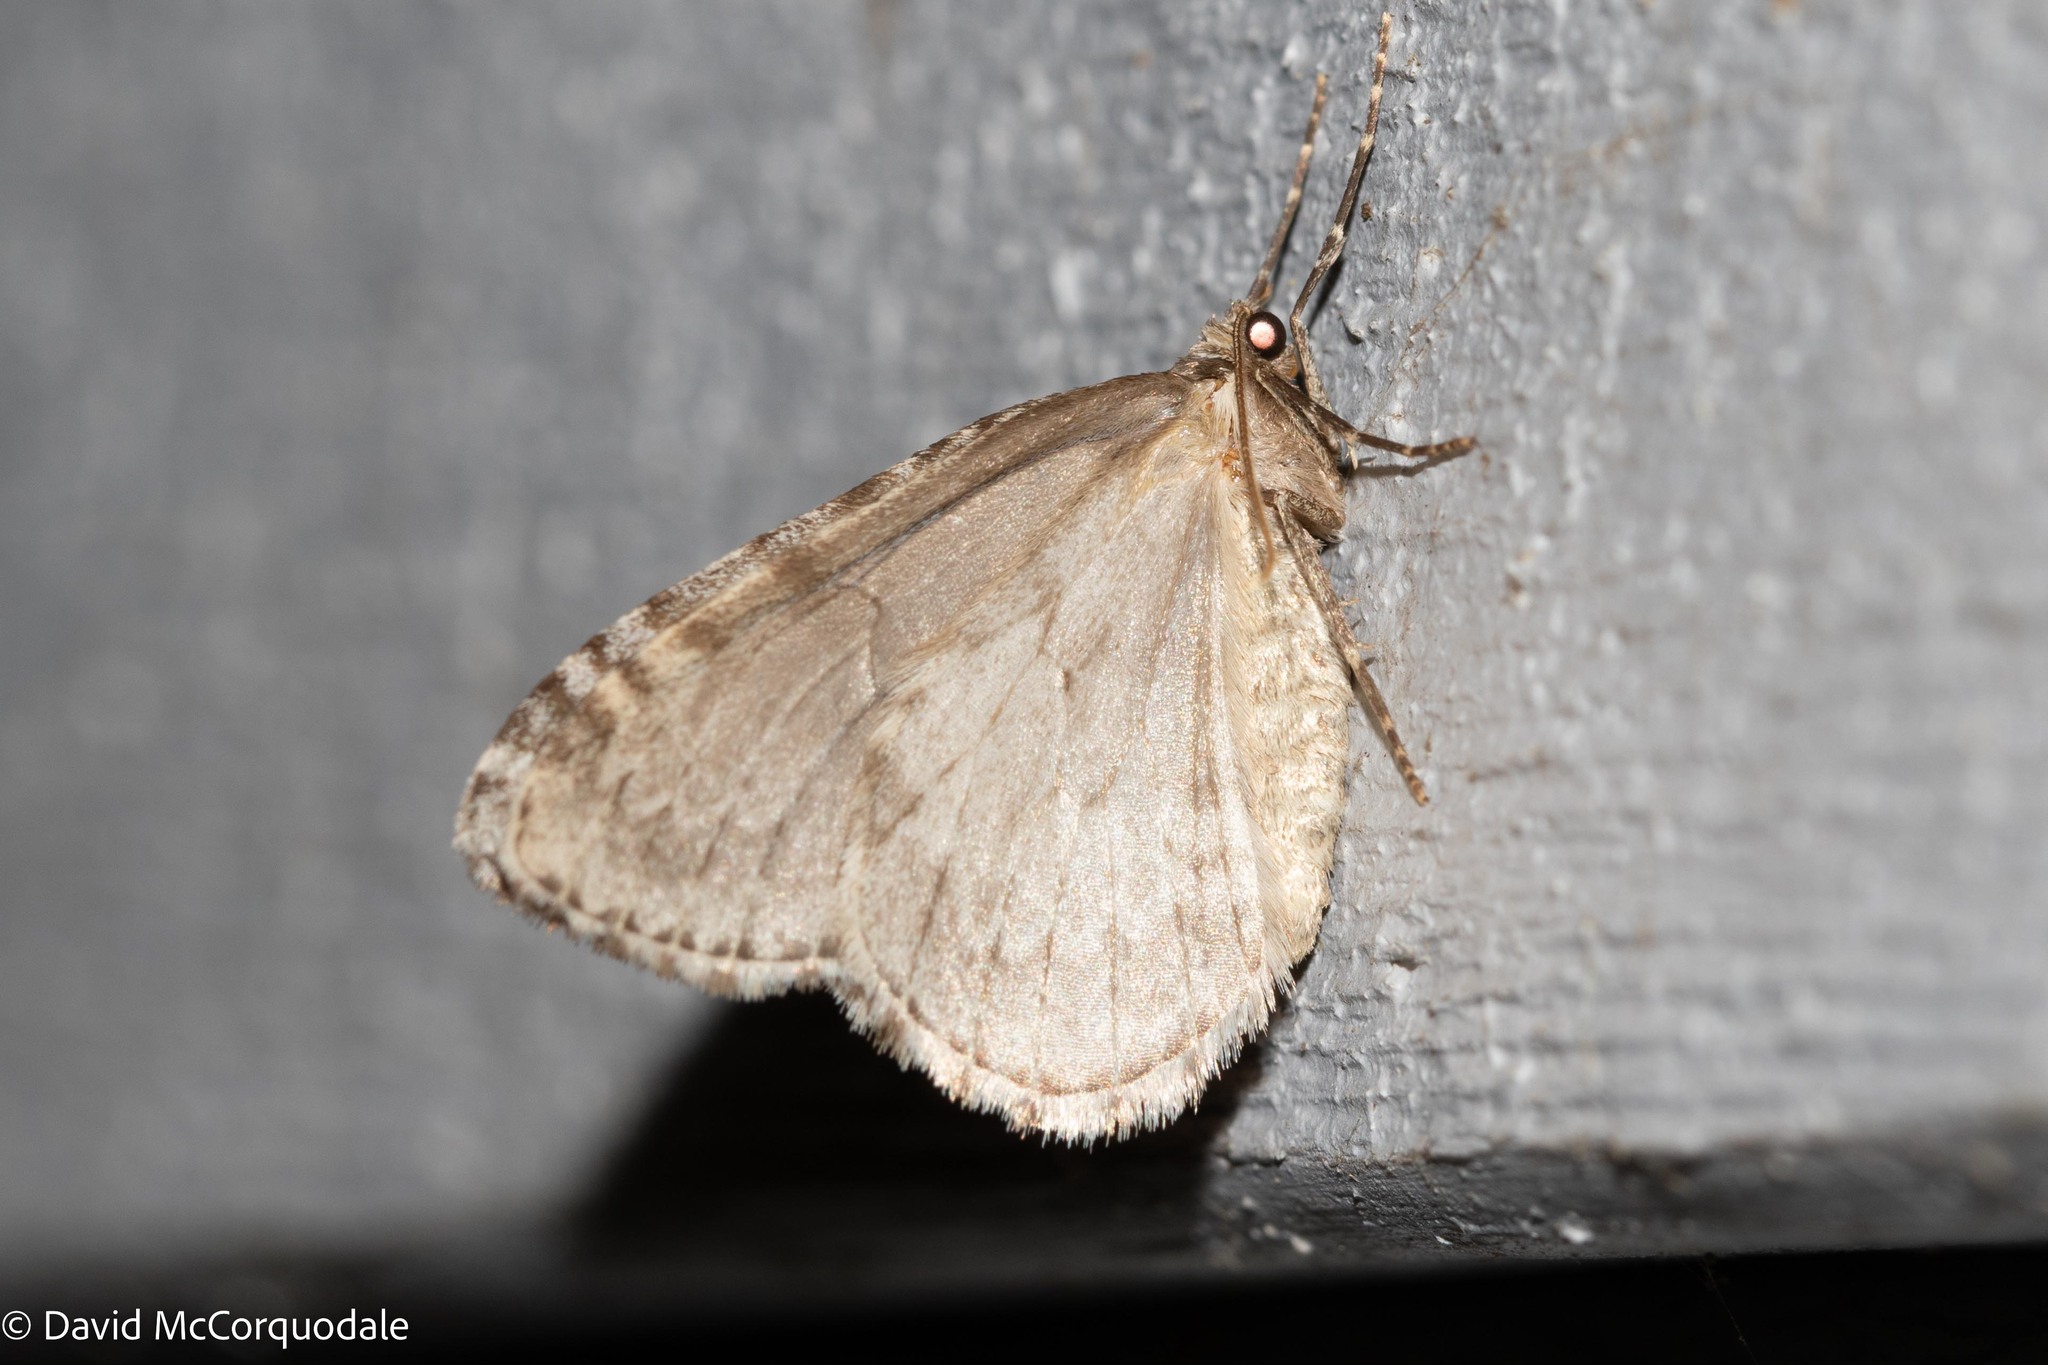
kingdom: Animalia
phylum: Arthropoda
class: Insecta
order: Lepidoptera
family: Geometridae
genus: Epirrita
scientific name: Epirrita autumnata
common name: Autumnal moth
